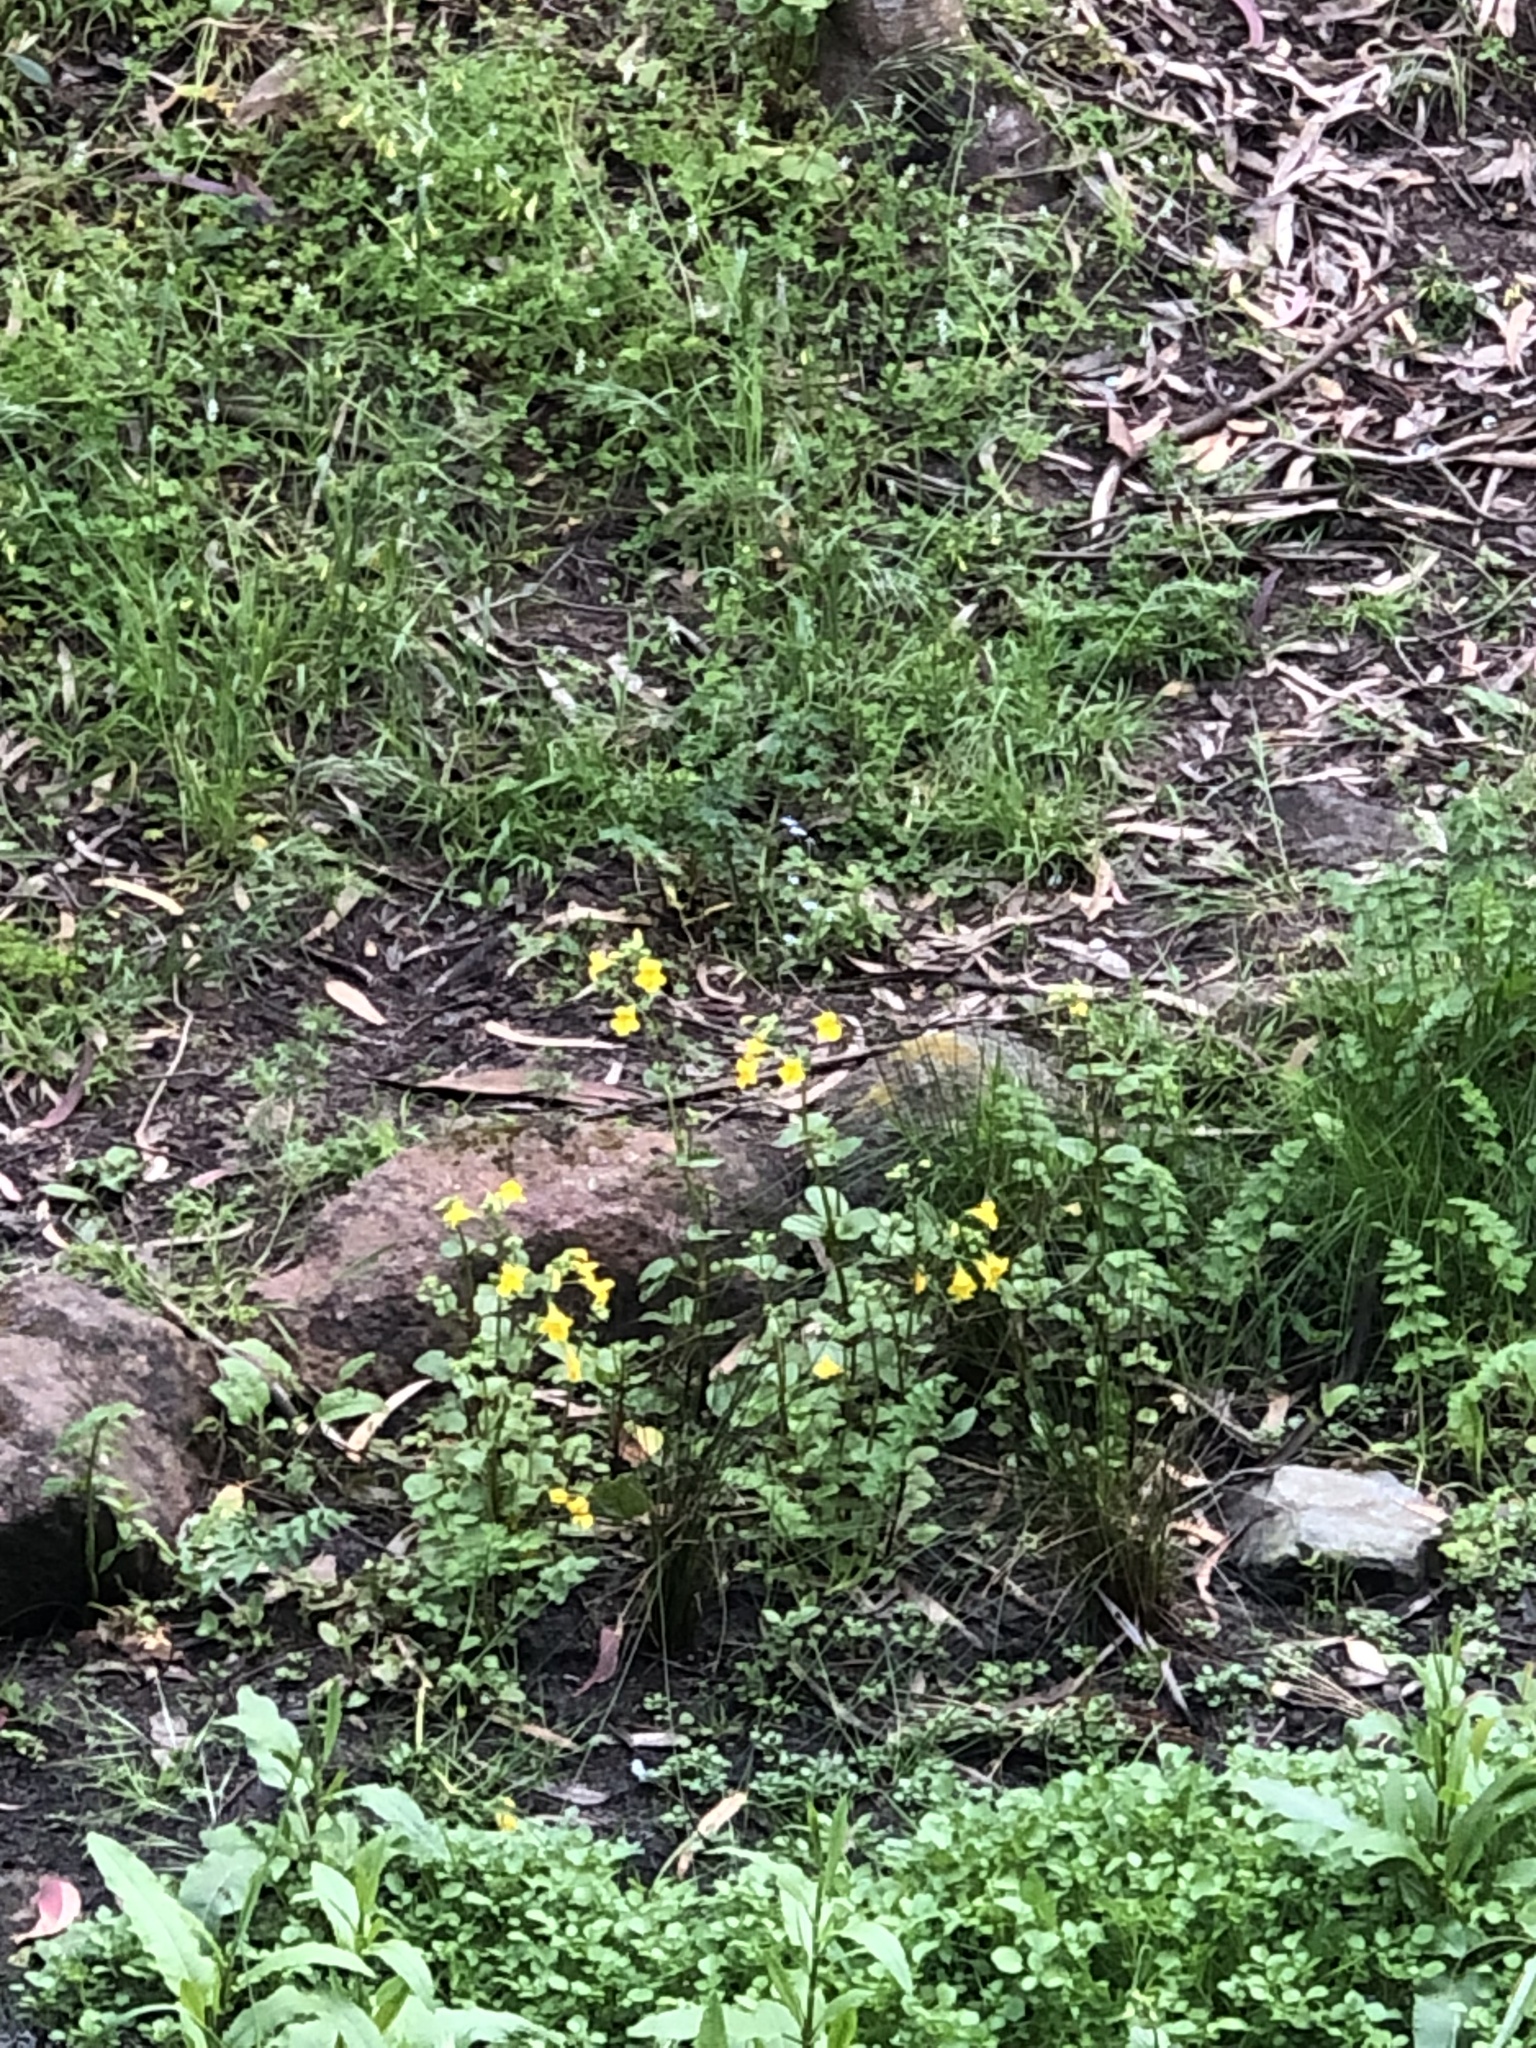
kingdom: Plantae
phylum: Tracheophyta
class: Magnoliopsida
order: Lamiales
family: Phrymaceae
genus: Erythranthe
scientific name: Erythranthe guttata
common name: Monkeyflower
